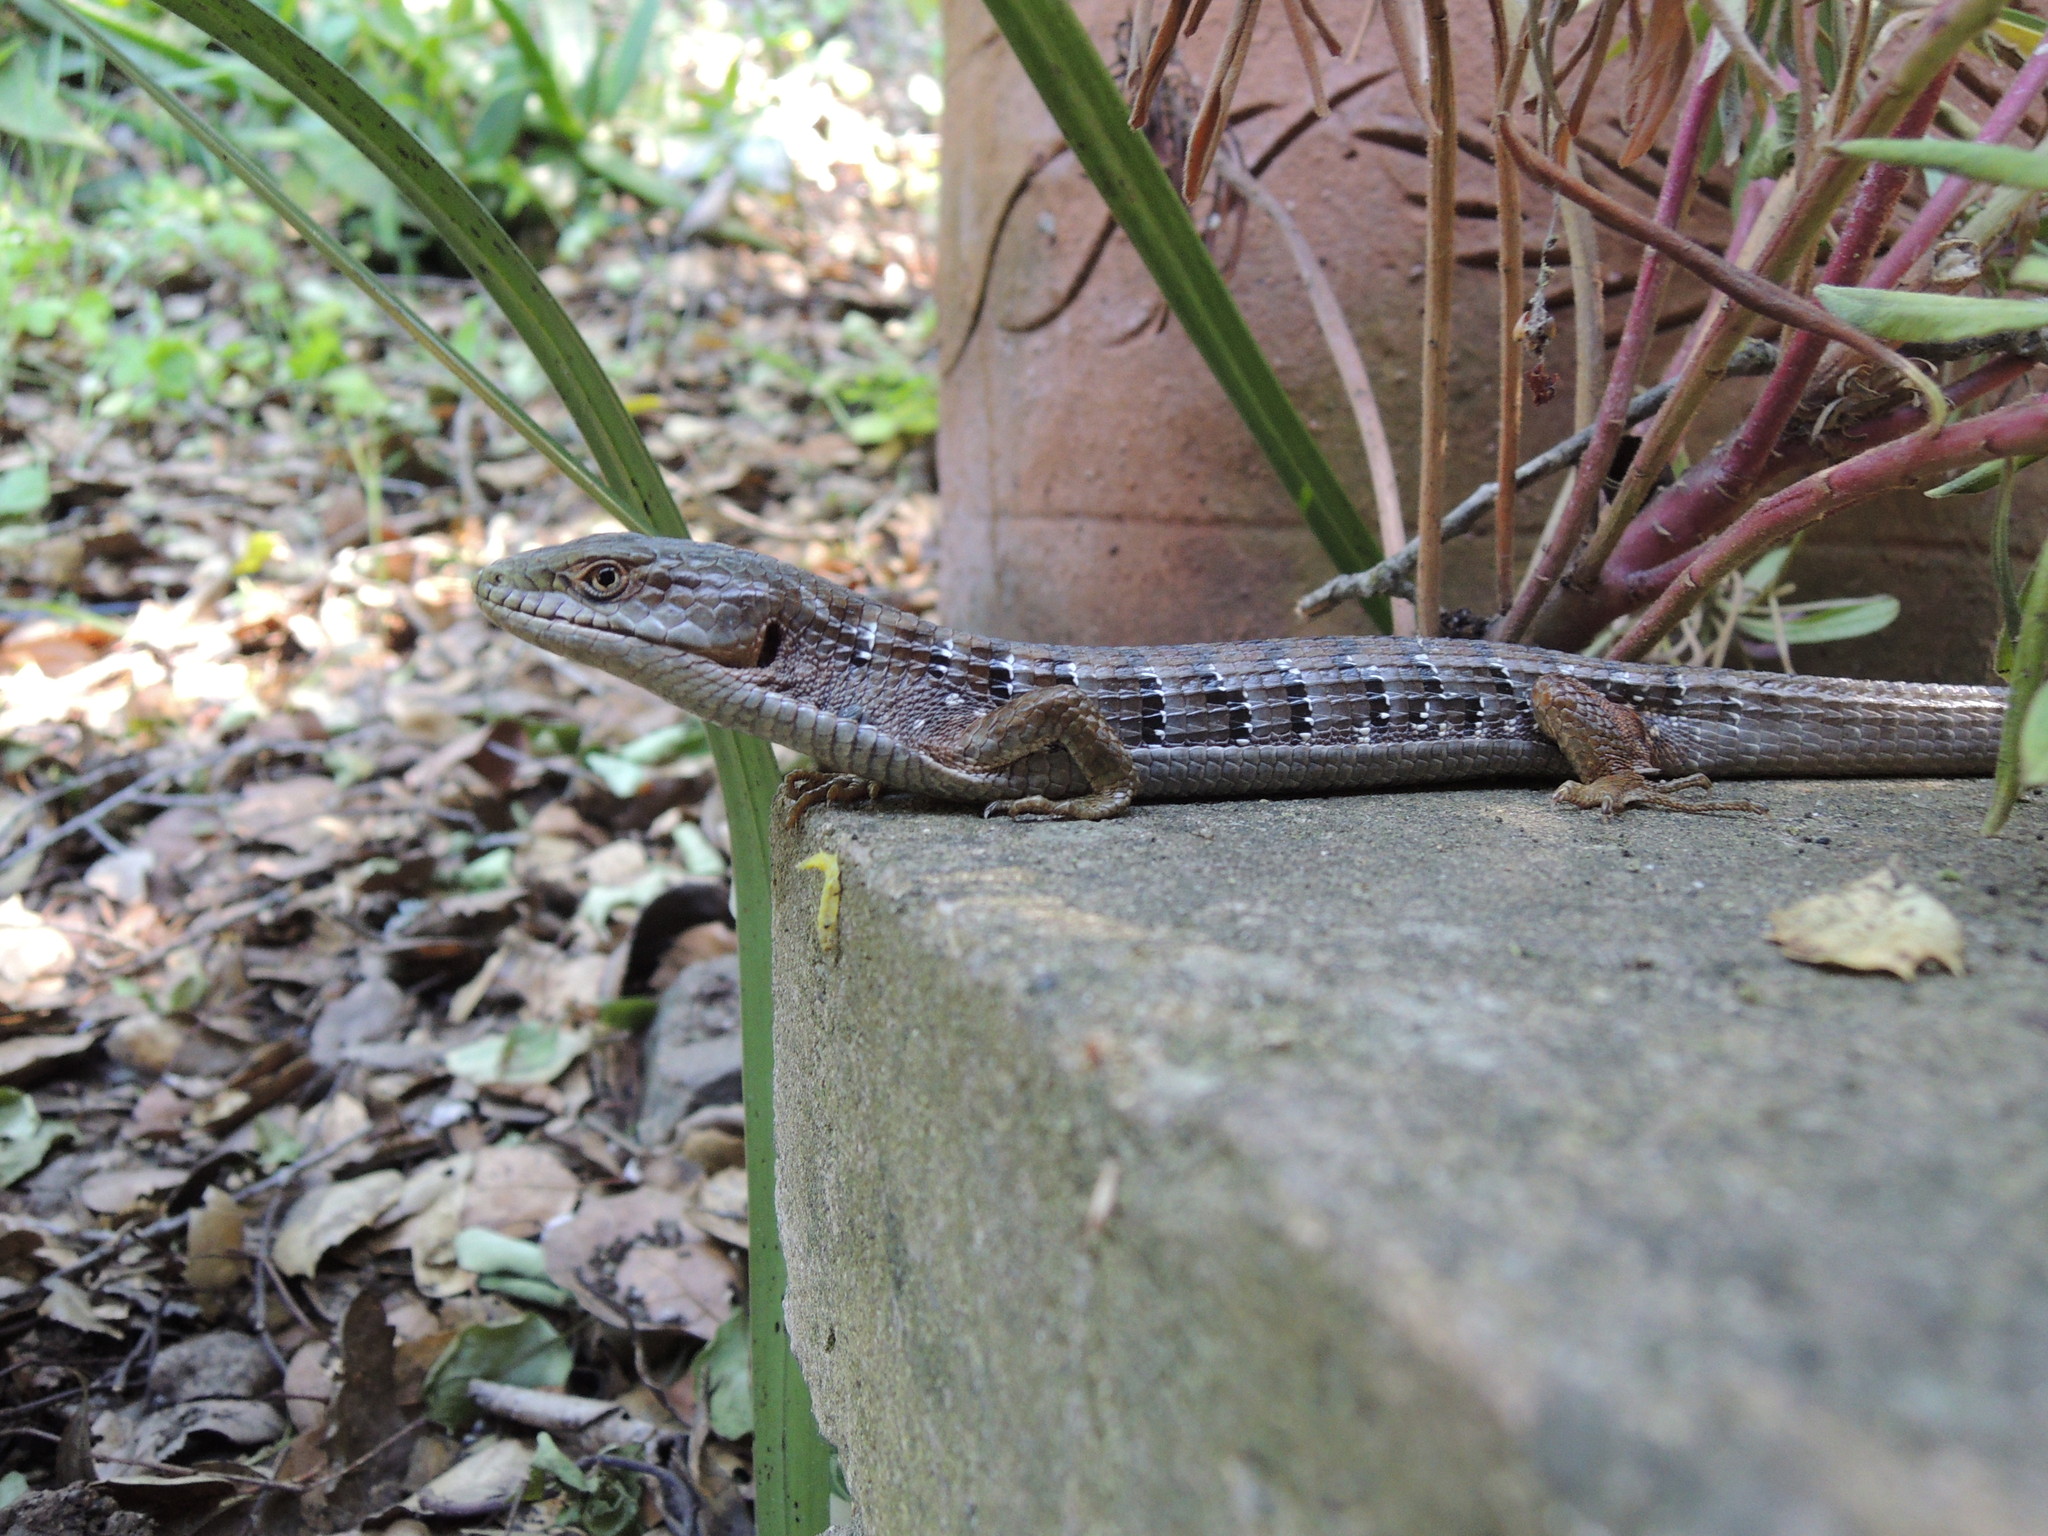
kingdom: Animalia
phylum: Chordata
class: Squamata
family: Anguidae
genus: Elgaria
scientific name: Elgaria multicarinata
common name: Southern alligator lizard
